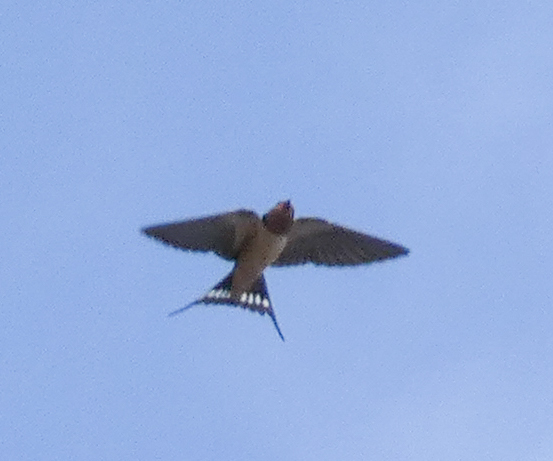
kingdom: Animalia
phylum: Chordata
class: Aves
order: Passeriformes
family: Hirundinidae
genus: Hirundo
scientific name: Hirundo rustica
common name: Barn swallow
